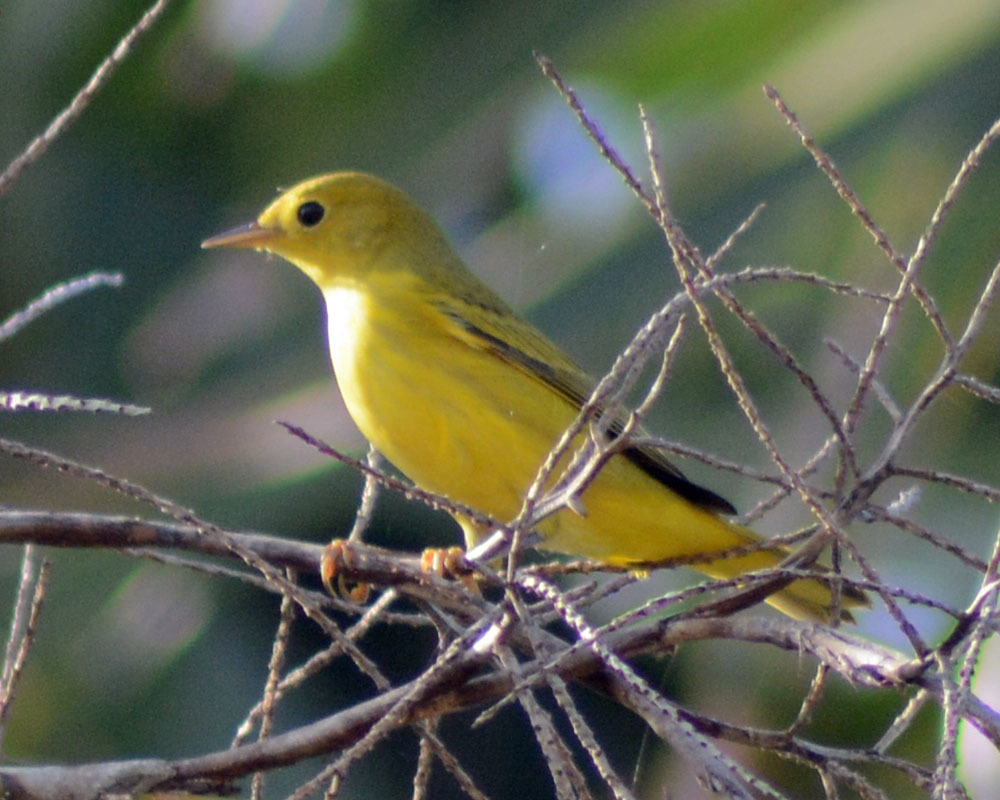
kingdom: Animalia
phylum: Chordata
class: Aves
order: Passeriformes
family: Parulidae
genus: Setophaga
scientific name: Setophaga petechia
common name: Yellow warbler
